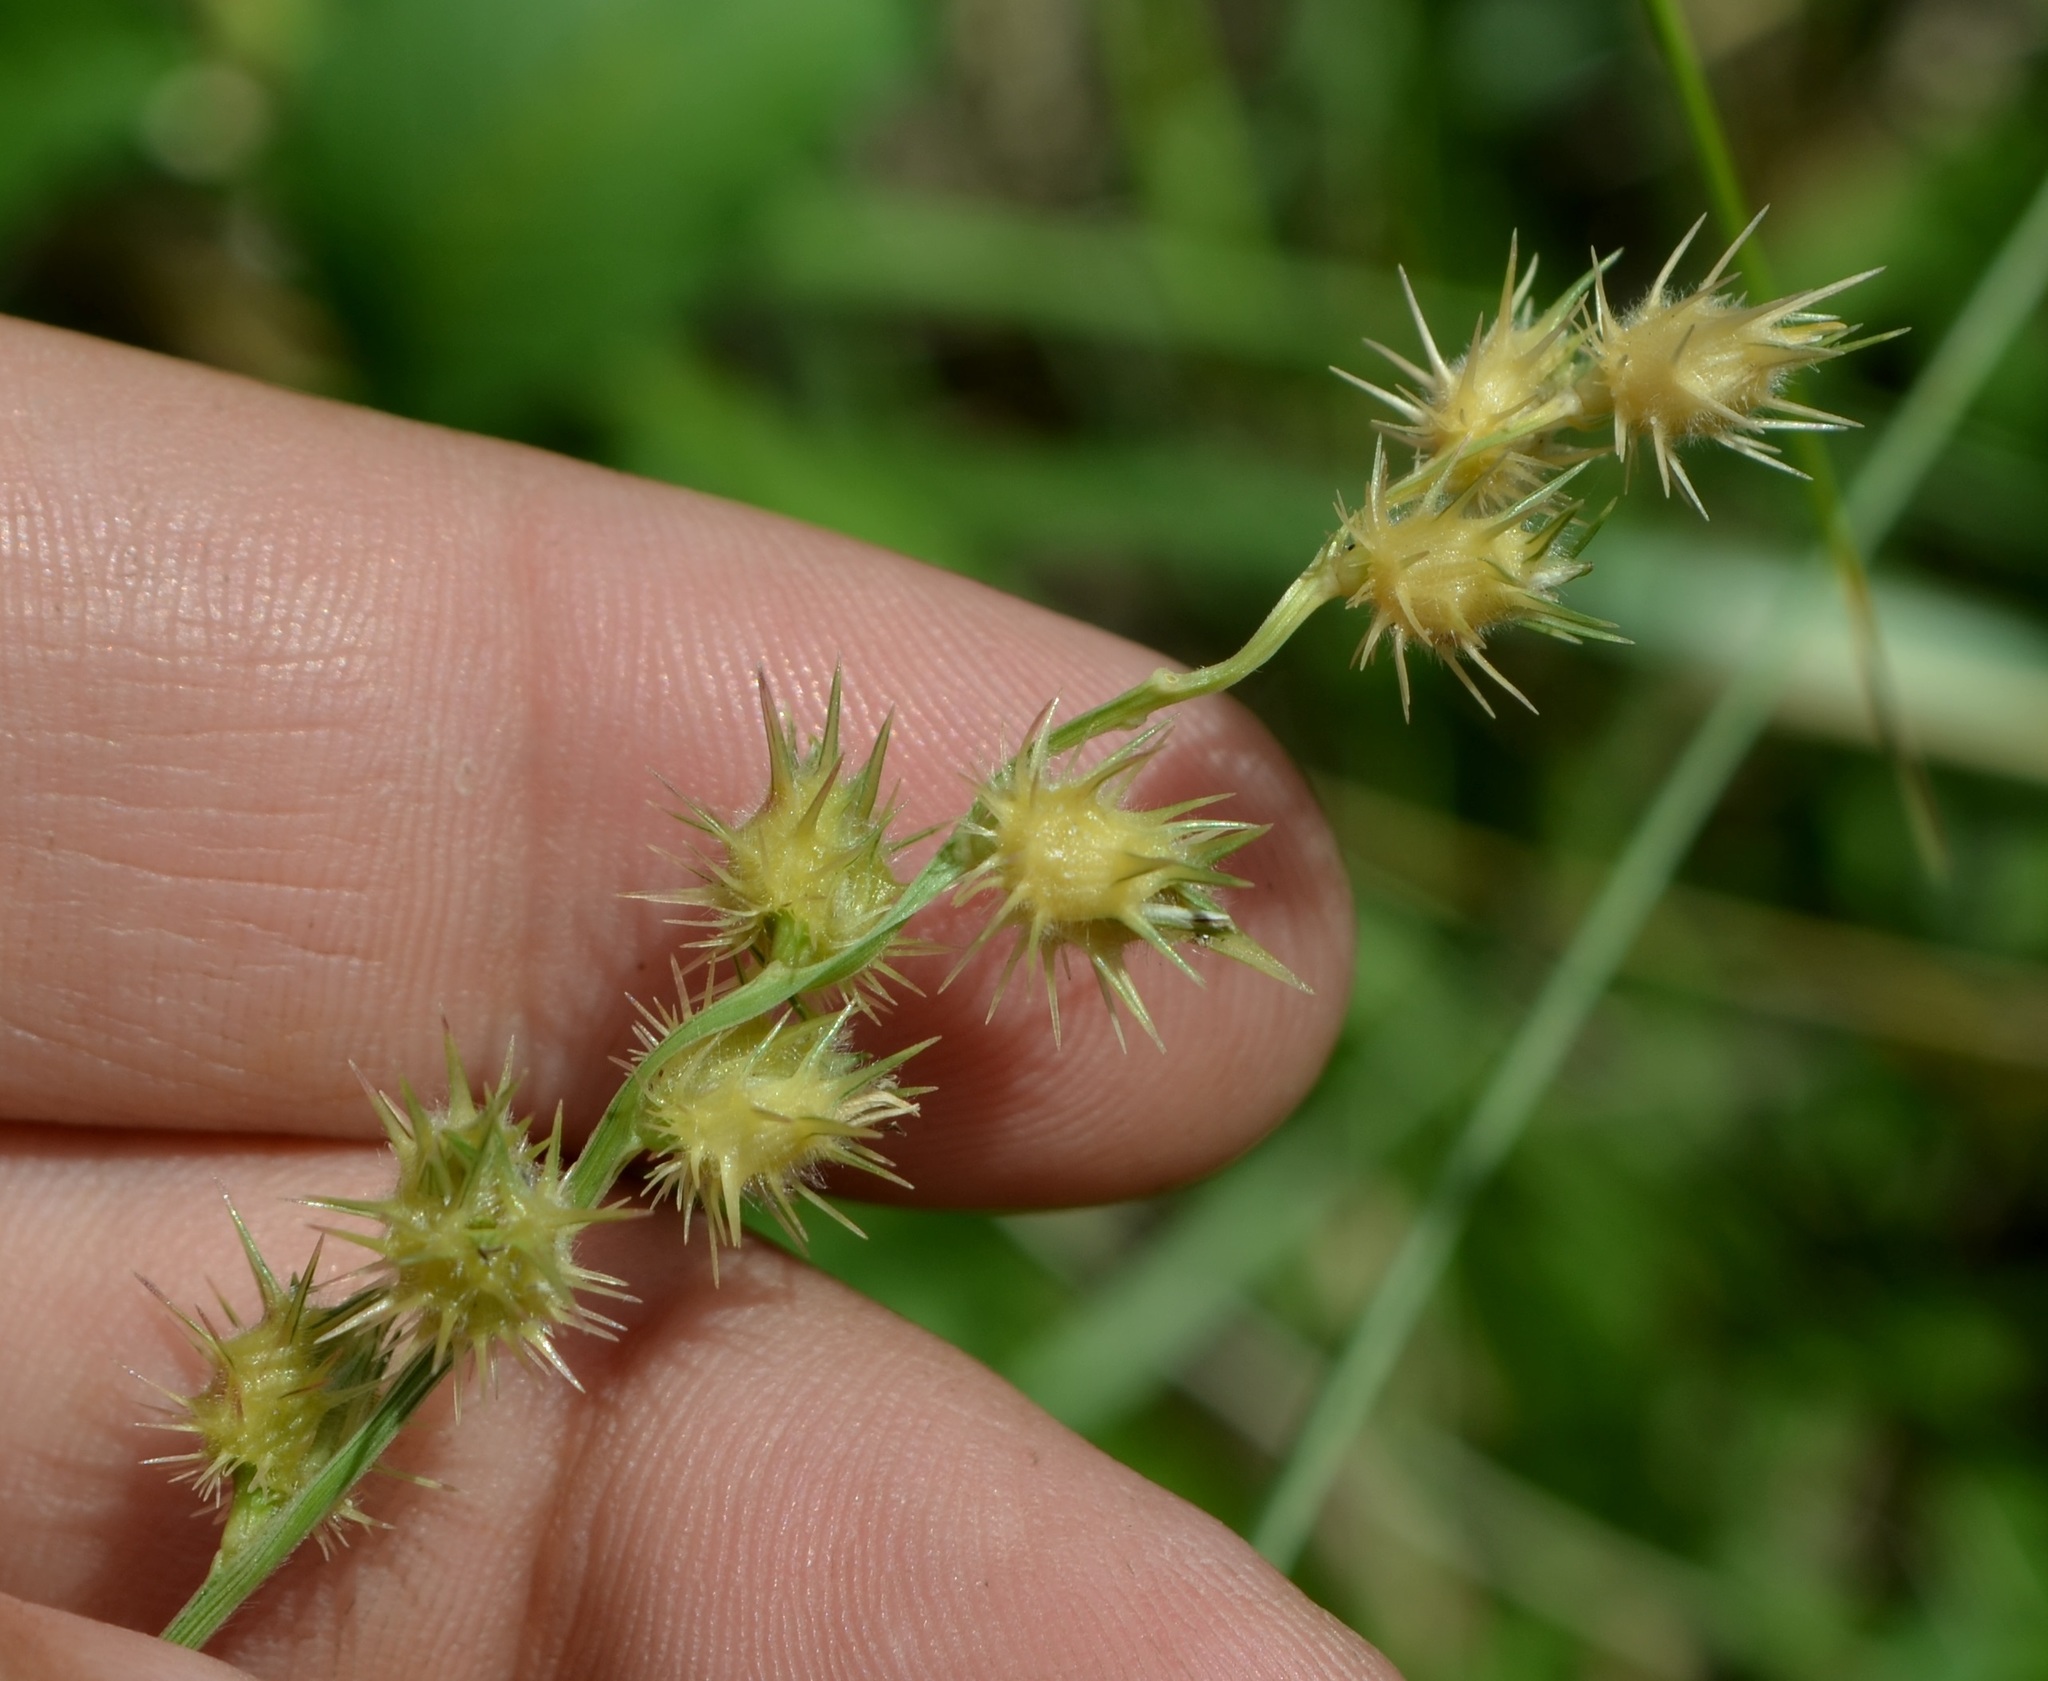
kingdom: Plantae
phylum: Tracheophyta
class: Liliopsida
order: Poales
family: Poaceae
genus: Cenchrus
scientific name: Cenchrus longispinus
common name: Mat sandbur
